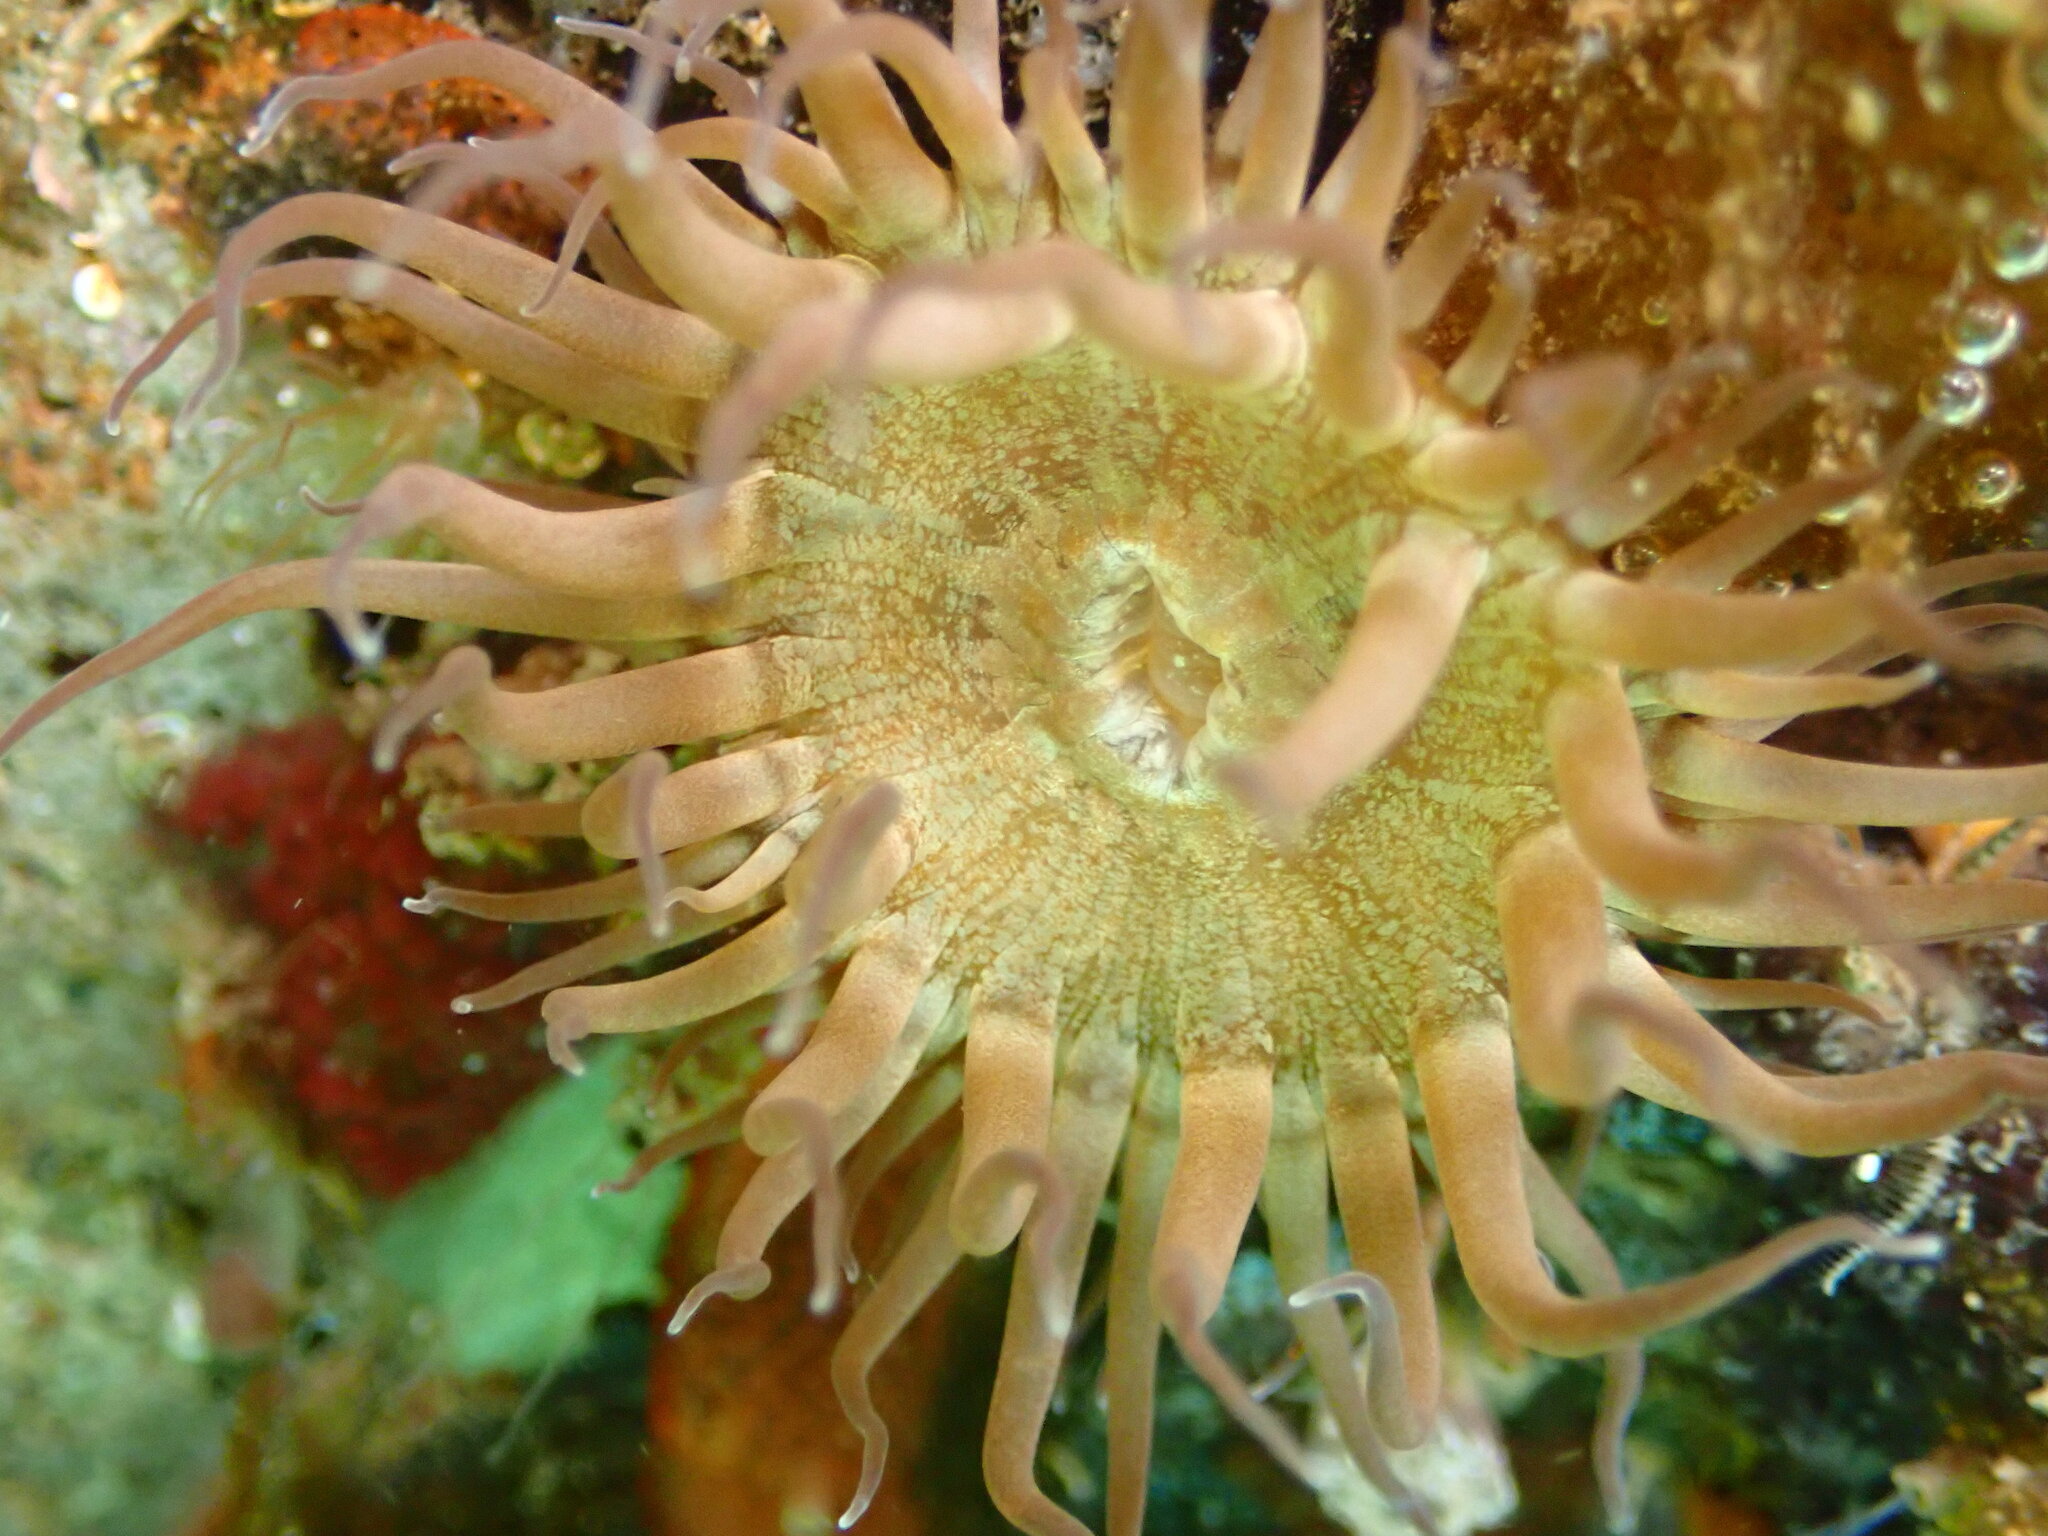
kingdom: Animalia
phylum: Cnidaria
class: Anthozoa
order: Actiniaria
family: Aiptasiidae
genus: Exaiptasia
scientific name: Exaiptasia diaphana
